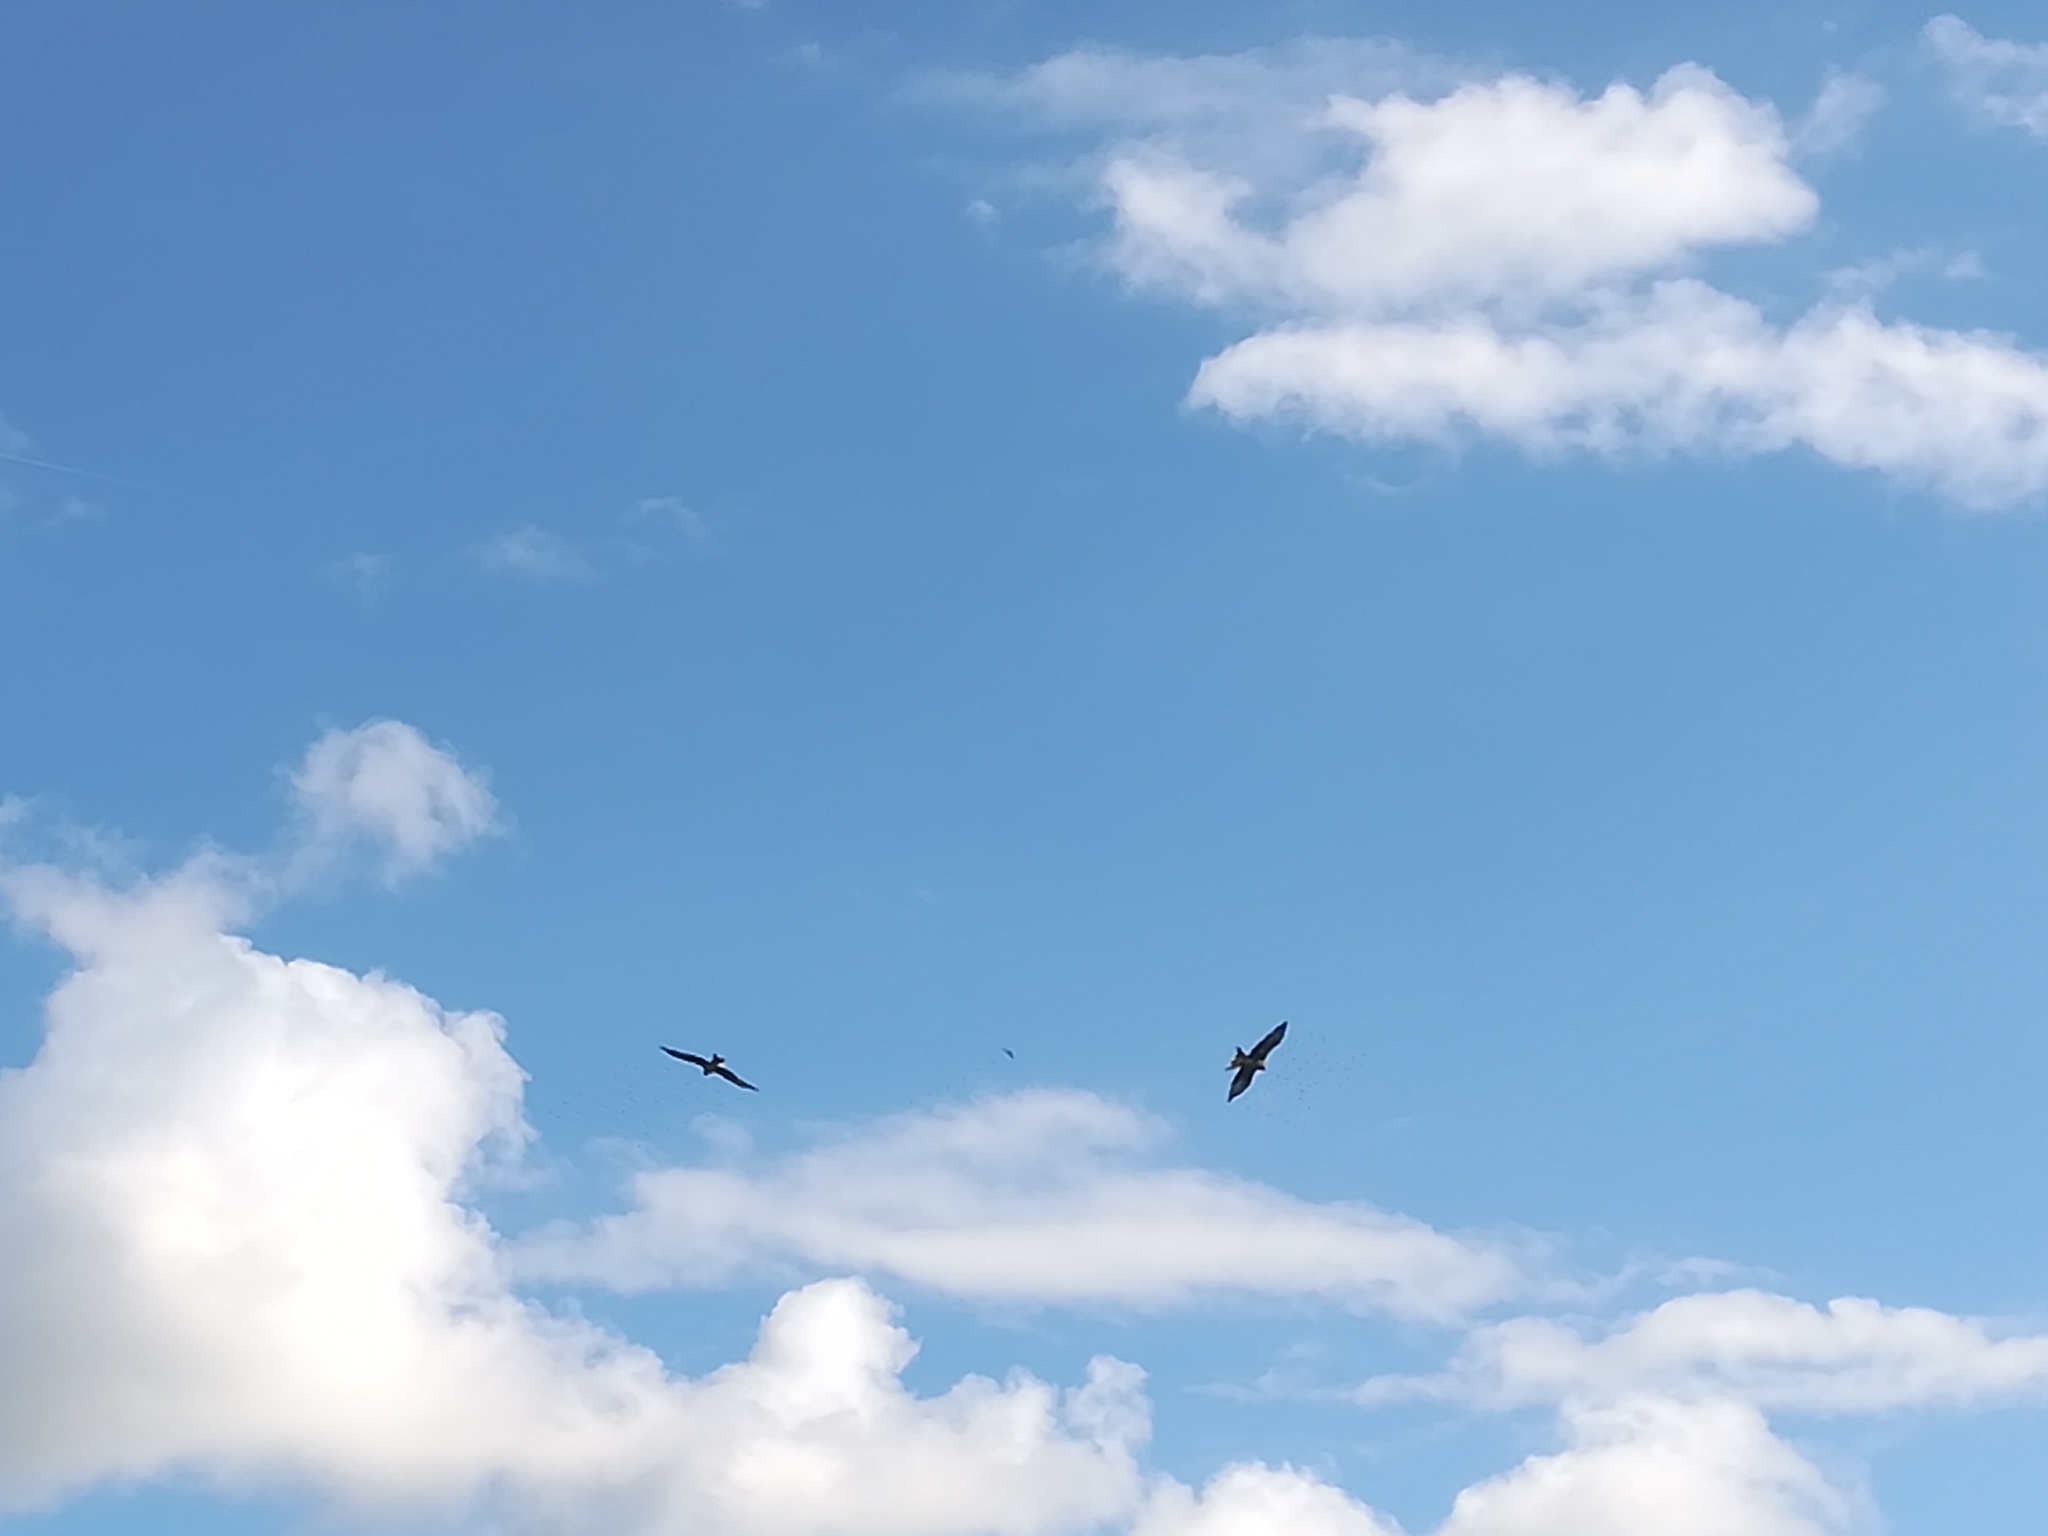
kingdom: Animalia
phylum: Chordata
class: Aves
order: Accipitriformes
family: Accipitridae
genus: Milvus
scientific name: Milvus milvus
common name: Red kite
